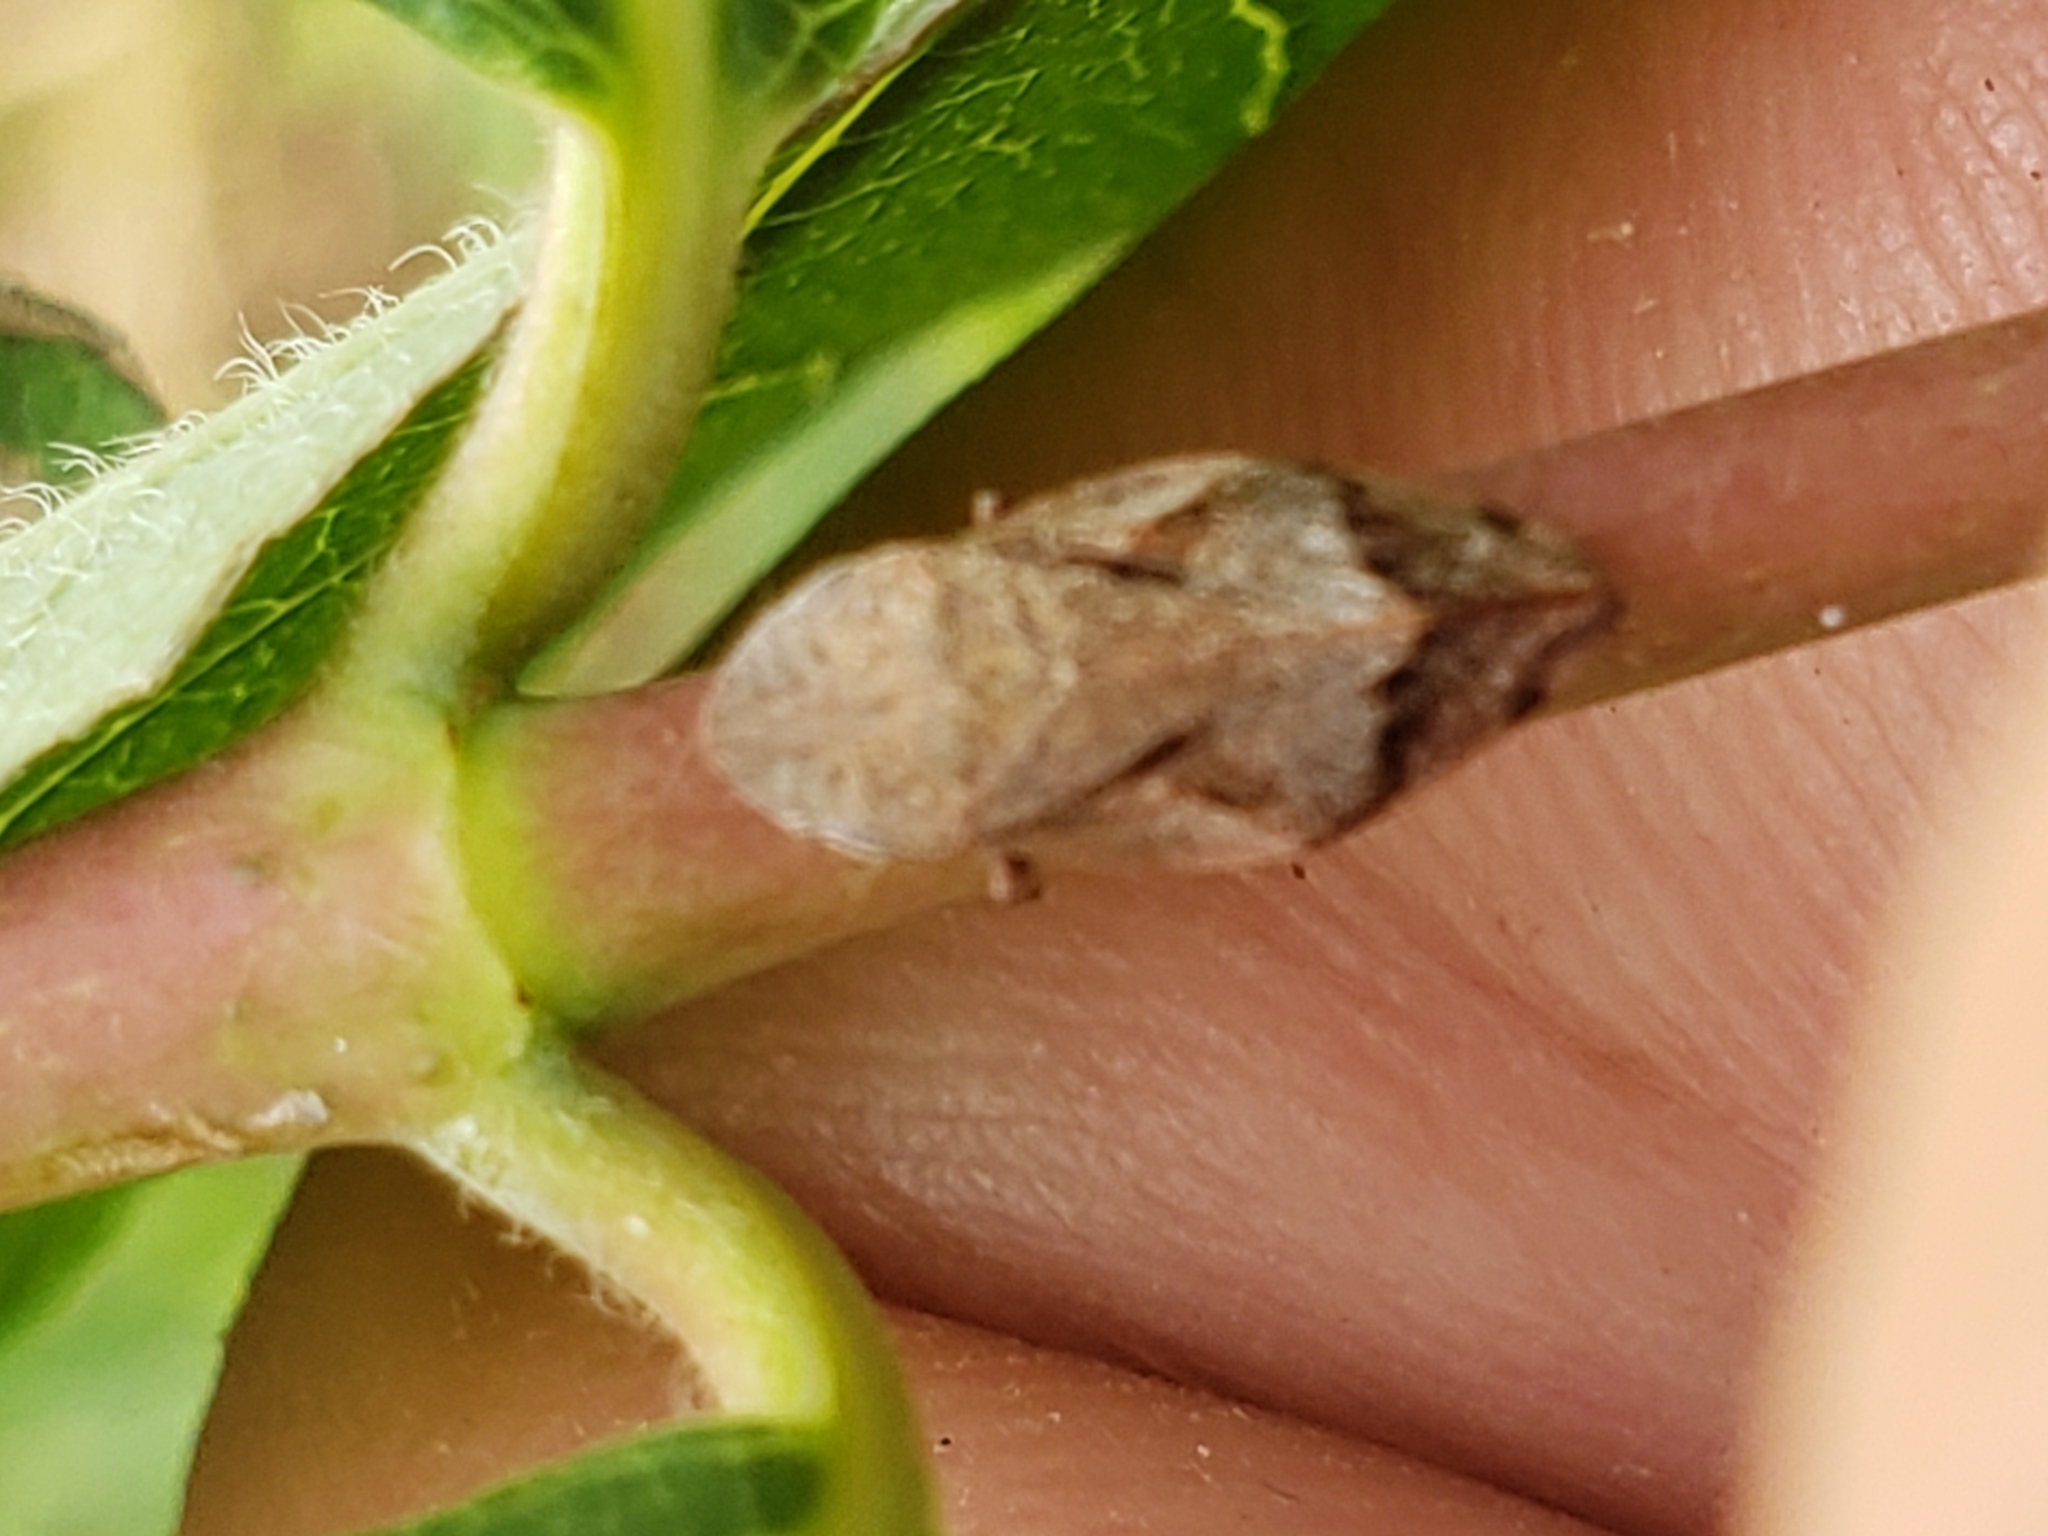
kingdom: Animalia
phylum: Arthropoda
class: Insecta
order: Hemiptera
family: Aphrophoridae
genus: Lepyronia
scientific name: Lepyronia quadrangularis
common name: Diamond-backed spittlebug
